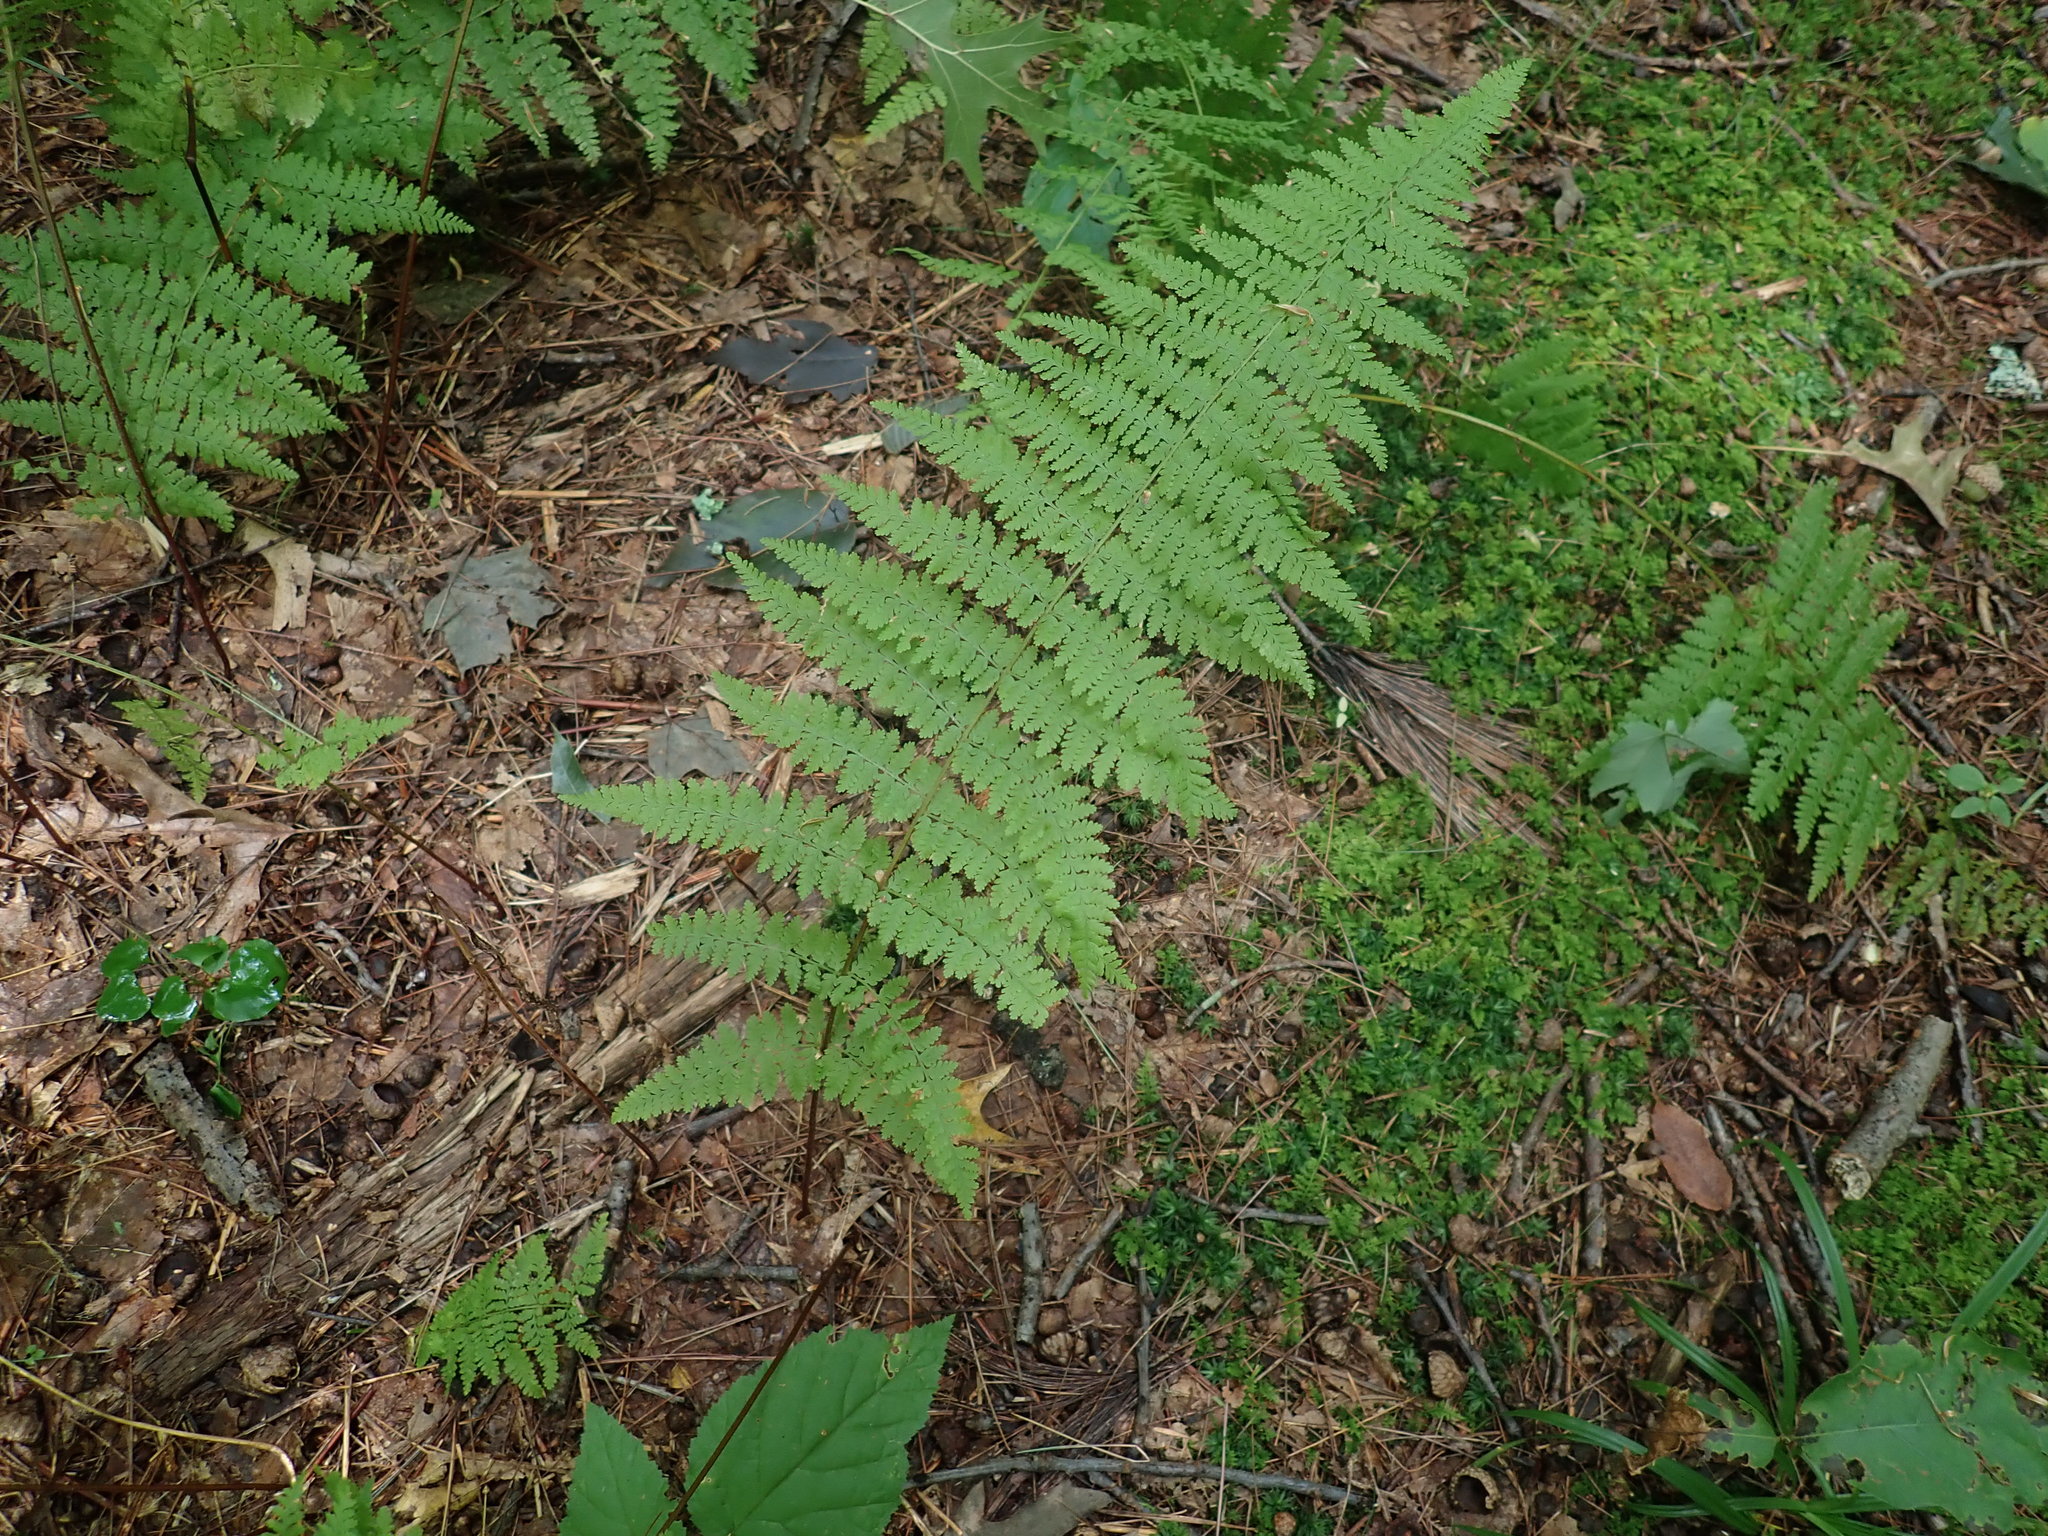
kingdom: Plantae
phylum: Tracheophyta
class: Polypodiopsida
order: Polypodiales
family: Dennstaedtiaceae
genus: Sitobolium
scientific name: Sitobolium punctilobum
